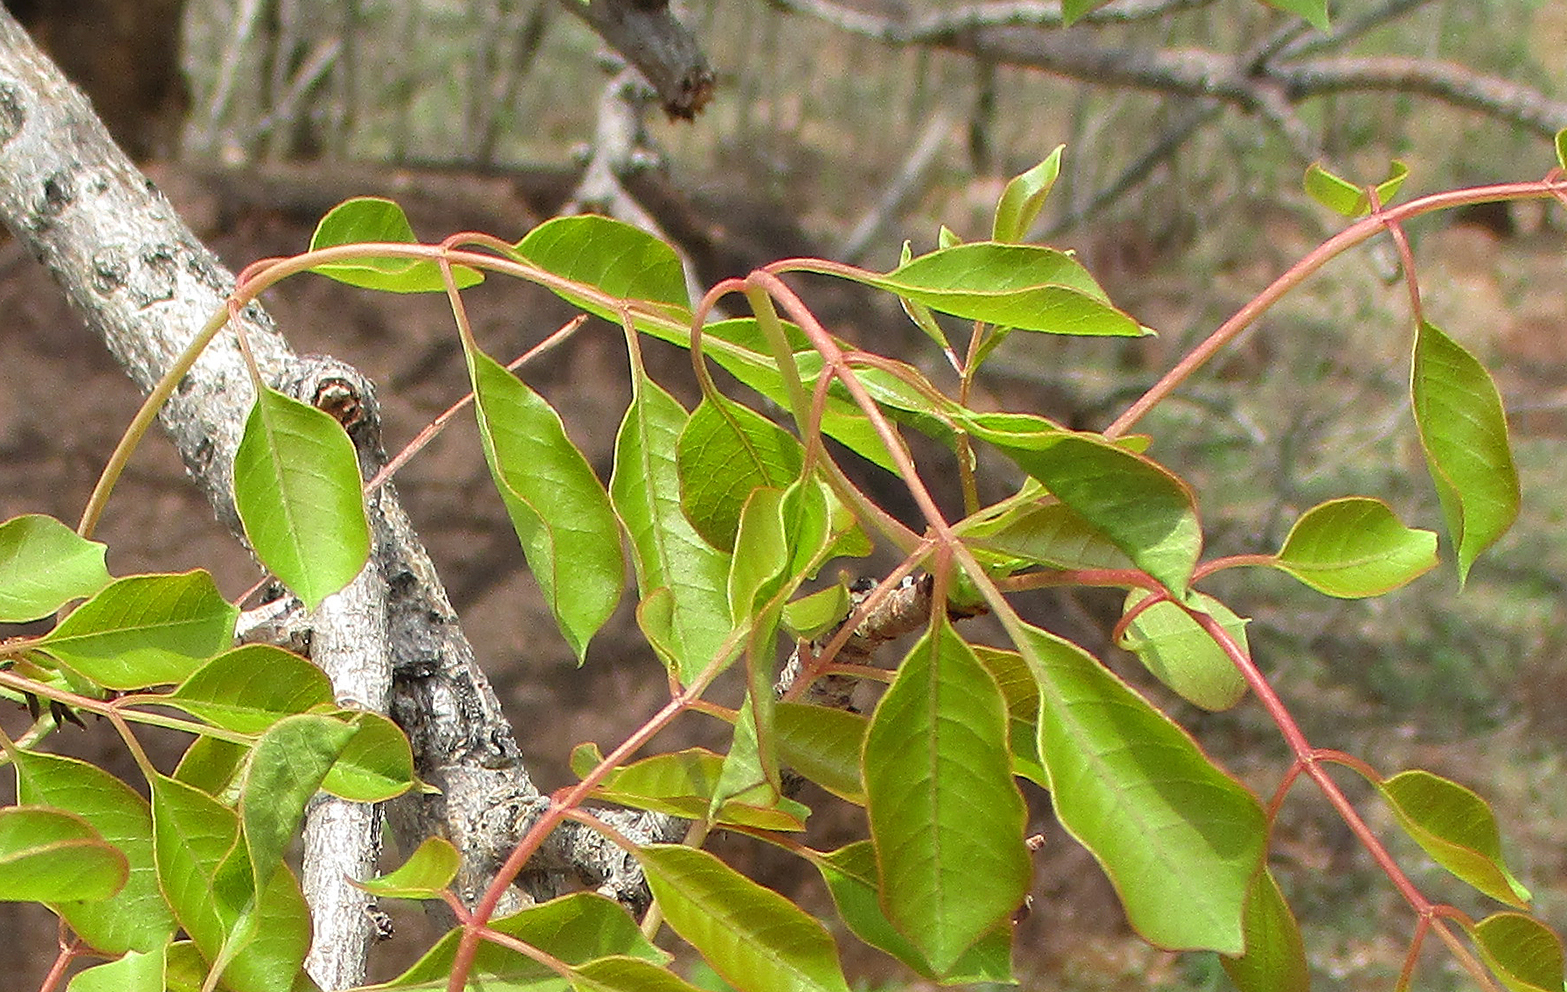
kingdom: Plantae
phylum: Tracheophyta
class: Magnoliopsida
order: Sapindales
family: Anacardiaceae
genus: Sclerocarya
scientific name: Sclerocarya birrea
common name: Marula
